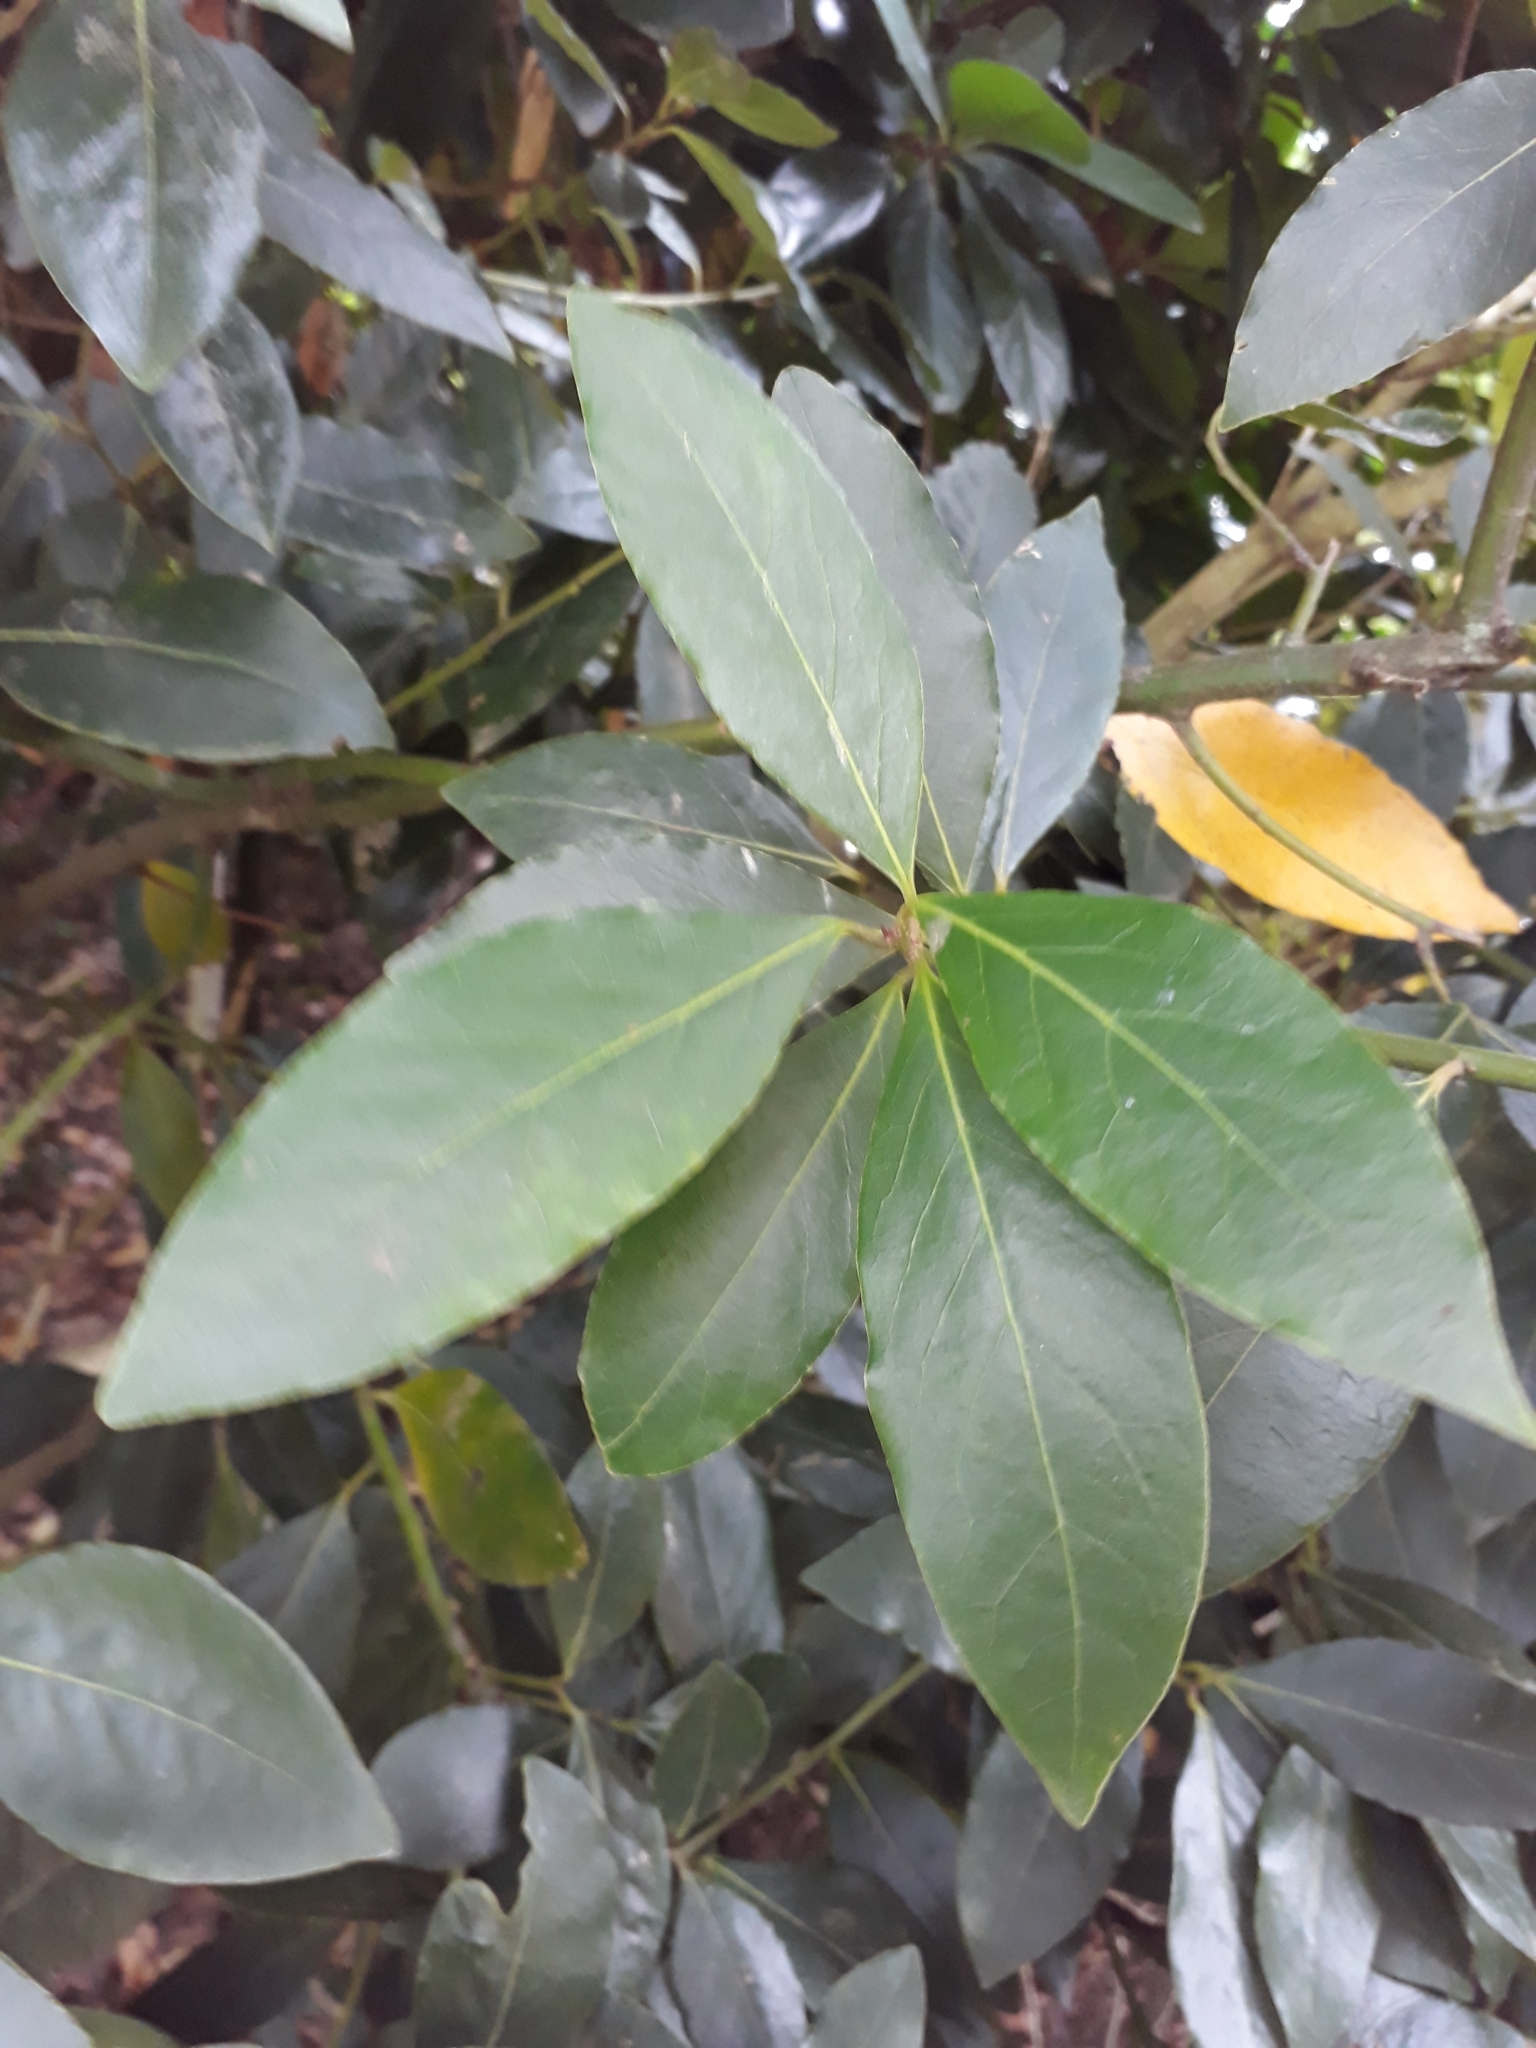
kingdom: Plantae
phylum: Tracheophyta
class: Magnoliopsida
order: Laurales
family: Lauraceae
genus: Laurus
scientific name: Laurus nobilis
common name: Bay
